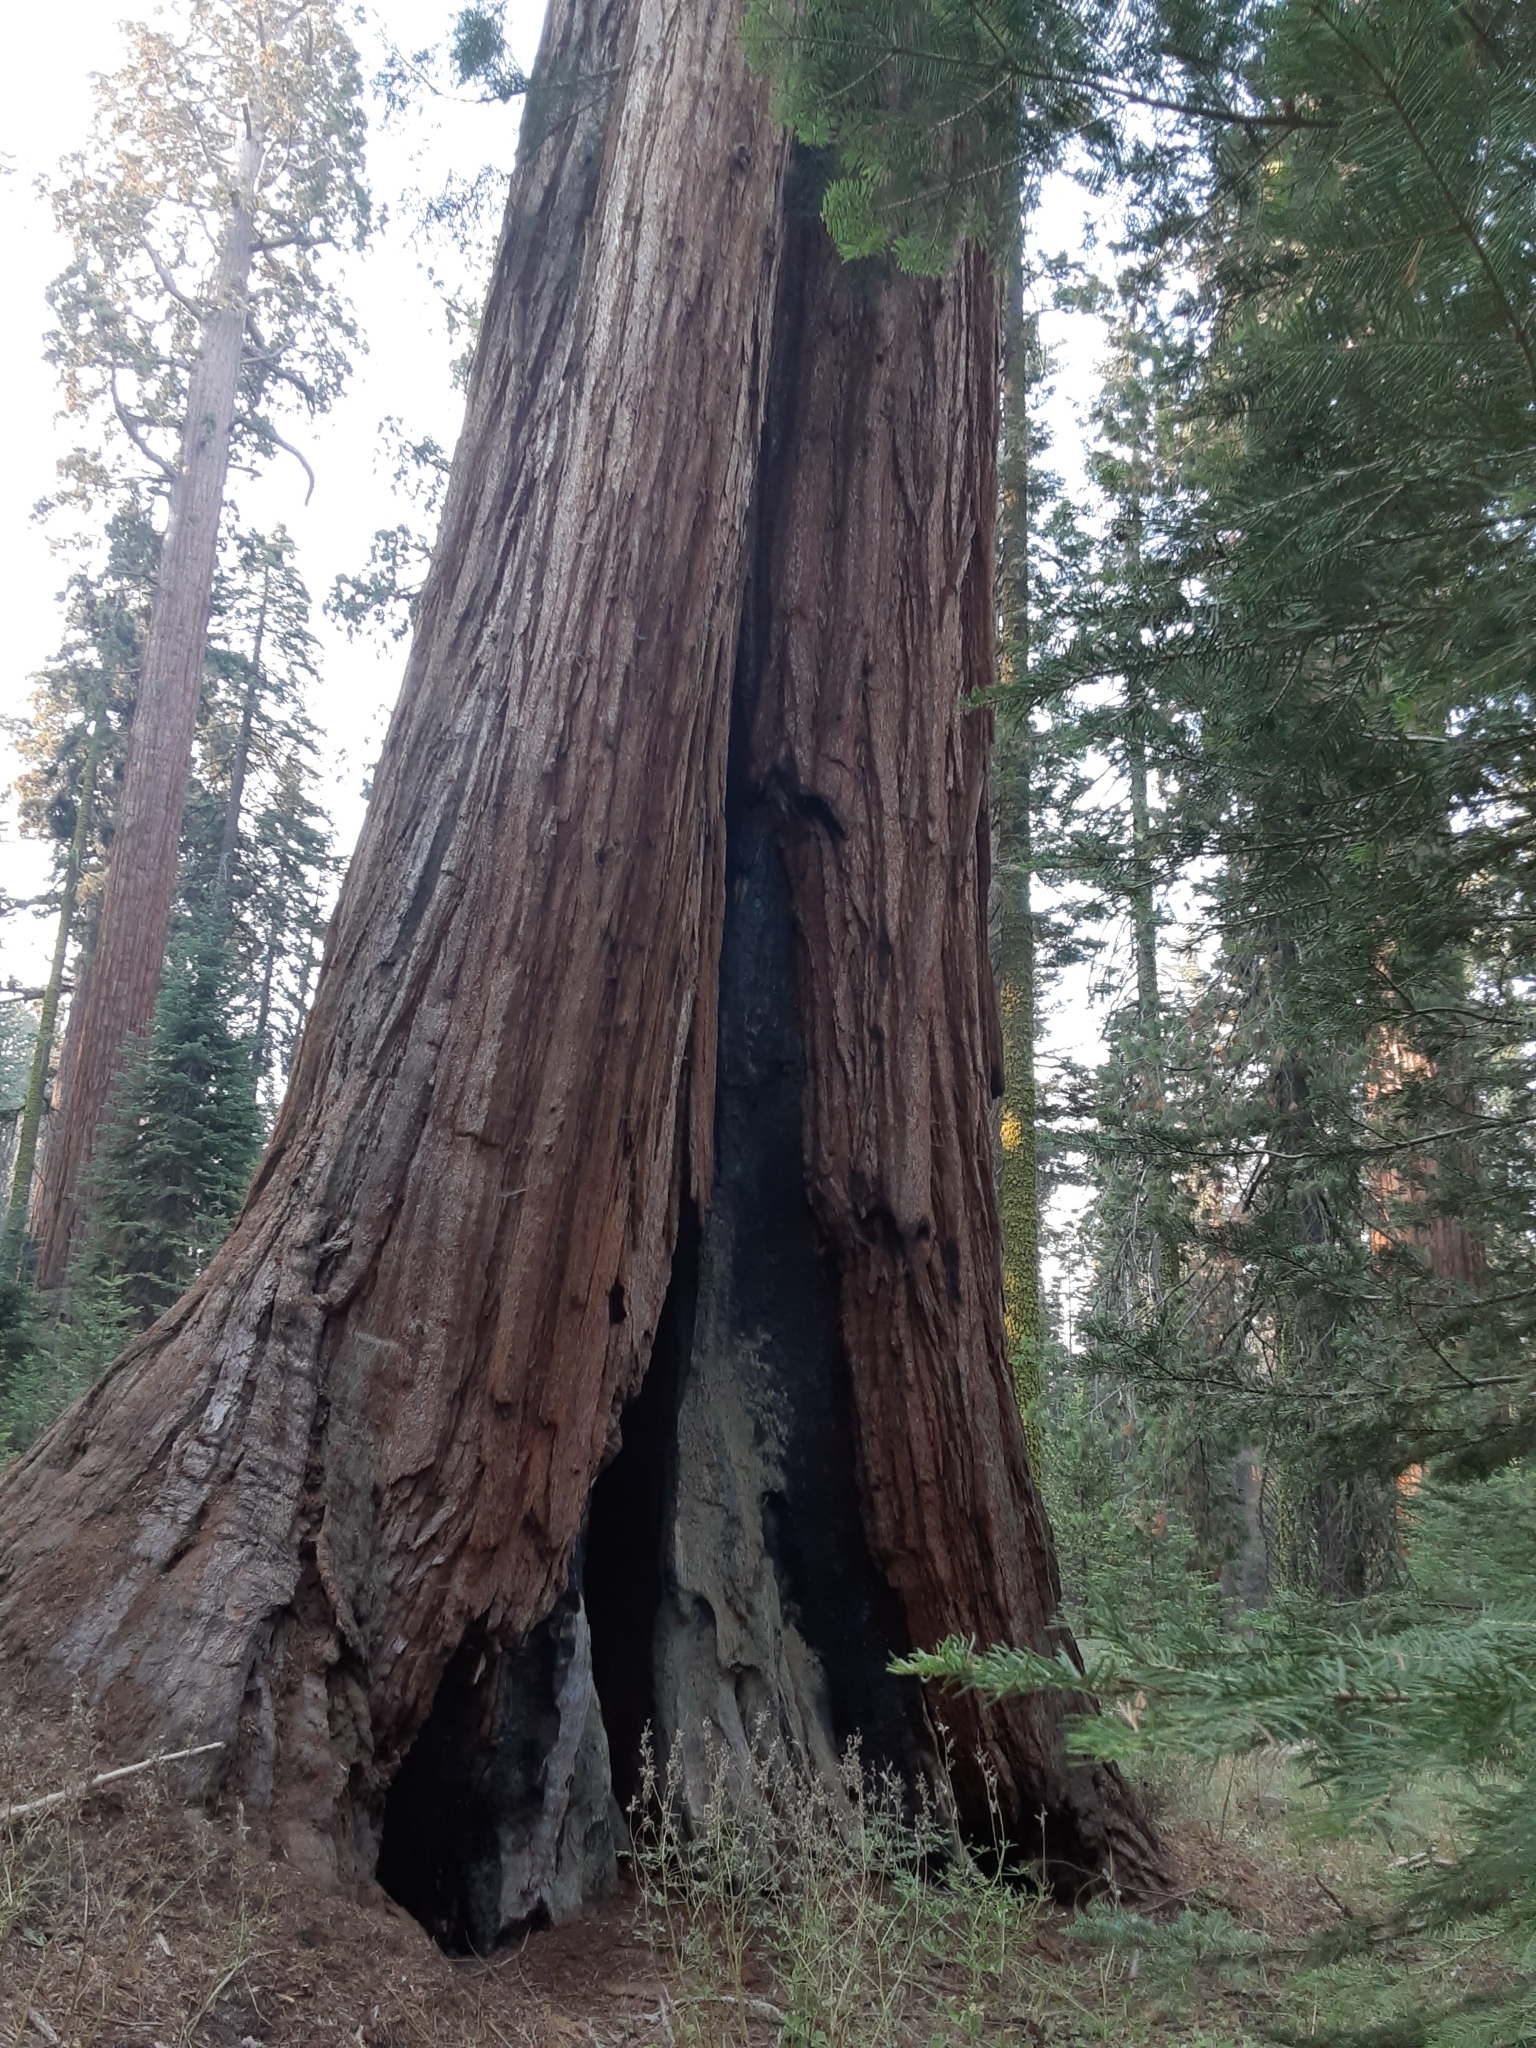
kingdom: Plantae
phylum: Tracheophyta
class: Pinopsida
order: Pinales
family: Cupressaceae
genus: Sequoiadendron
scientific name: Sequoiadendron giganteum
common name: Wellingtonia
